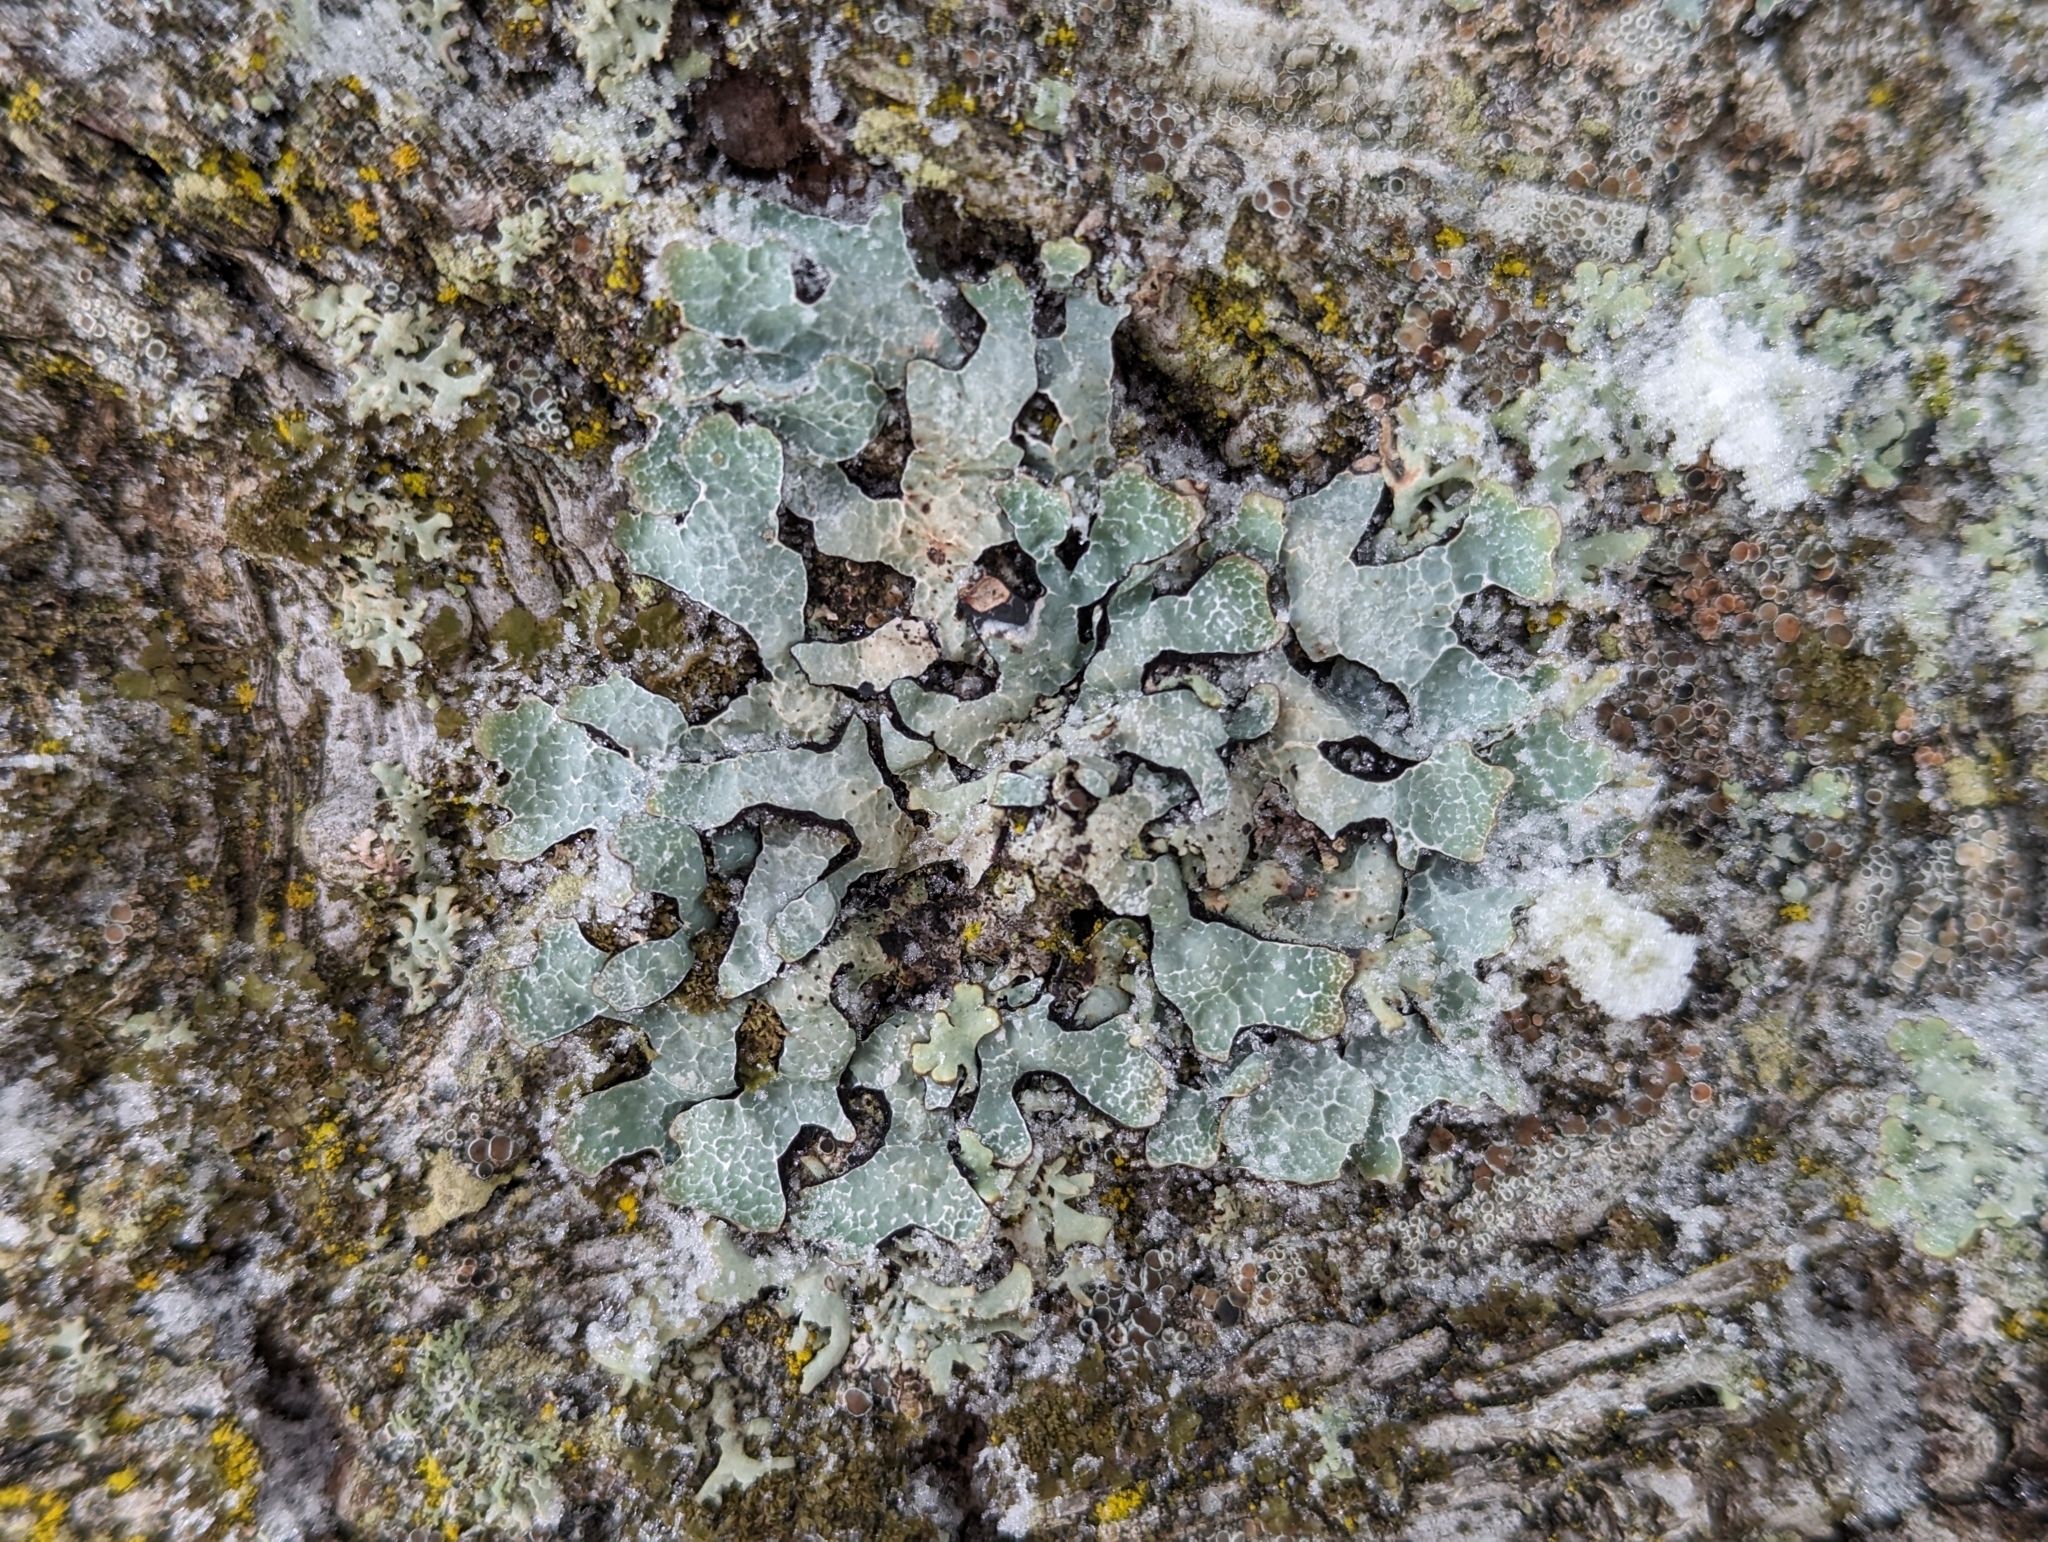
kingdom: Fungi
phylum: Ascomycota
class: Lecanoromycetes
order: Lecanorales
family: Parmeliaceae
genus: Parmelia
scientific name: Parmelia sulcata
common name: Netted shield lichen
